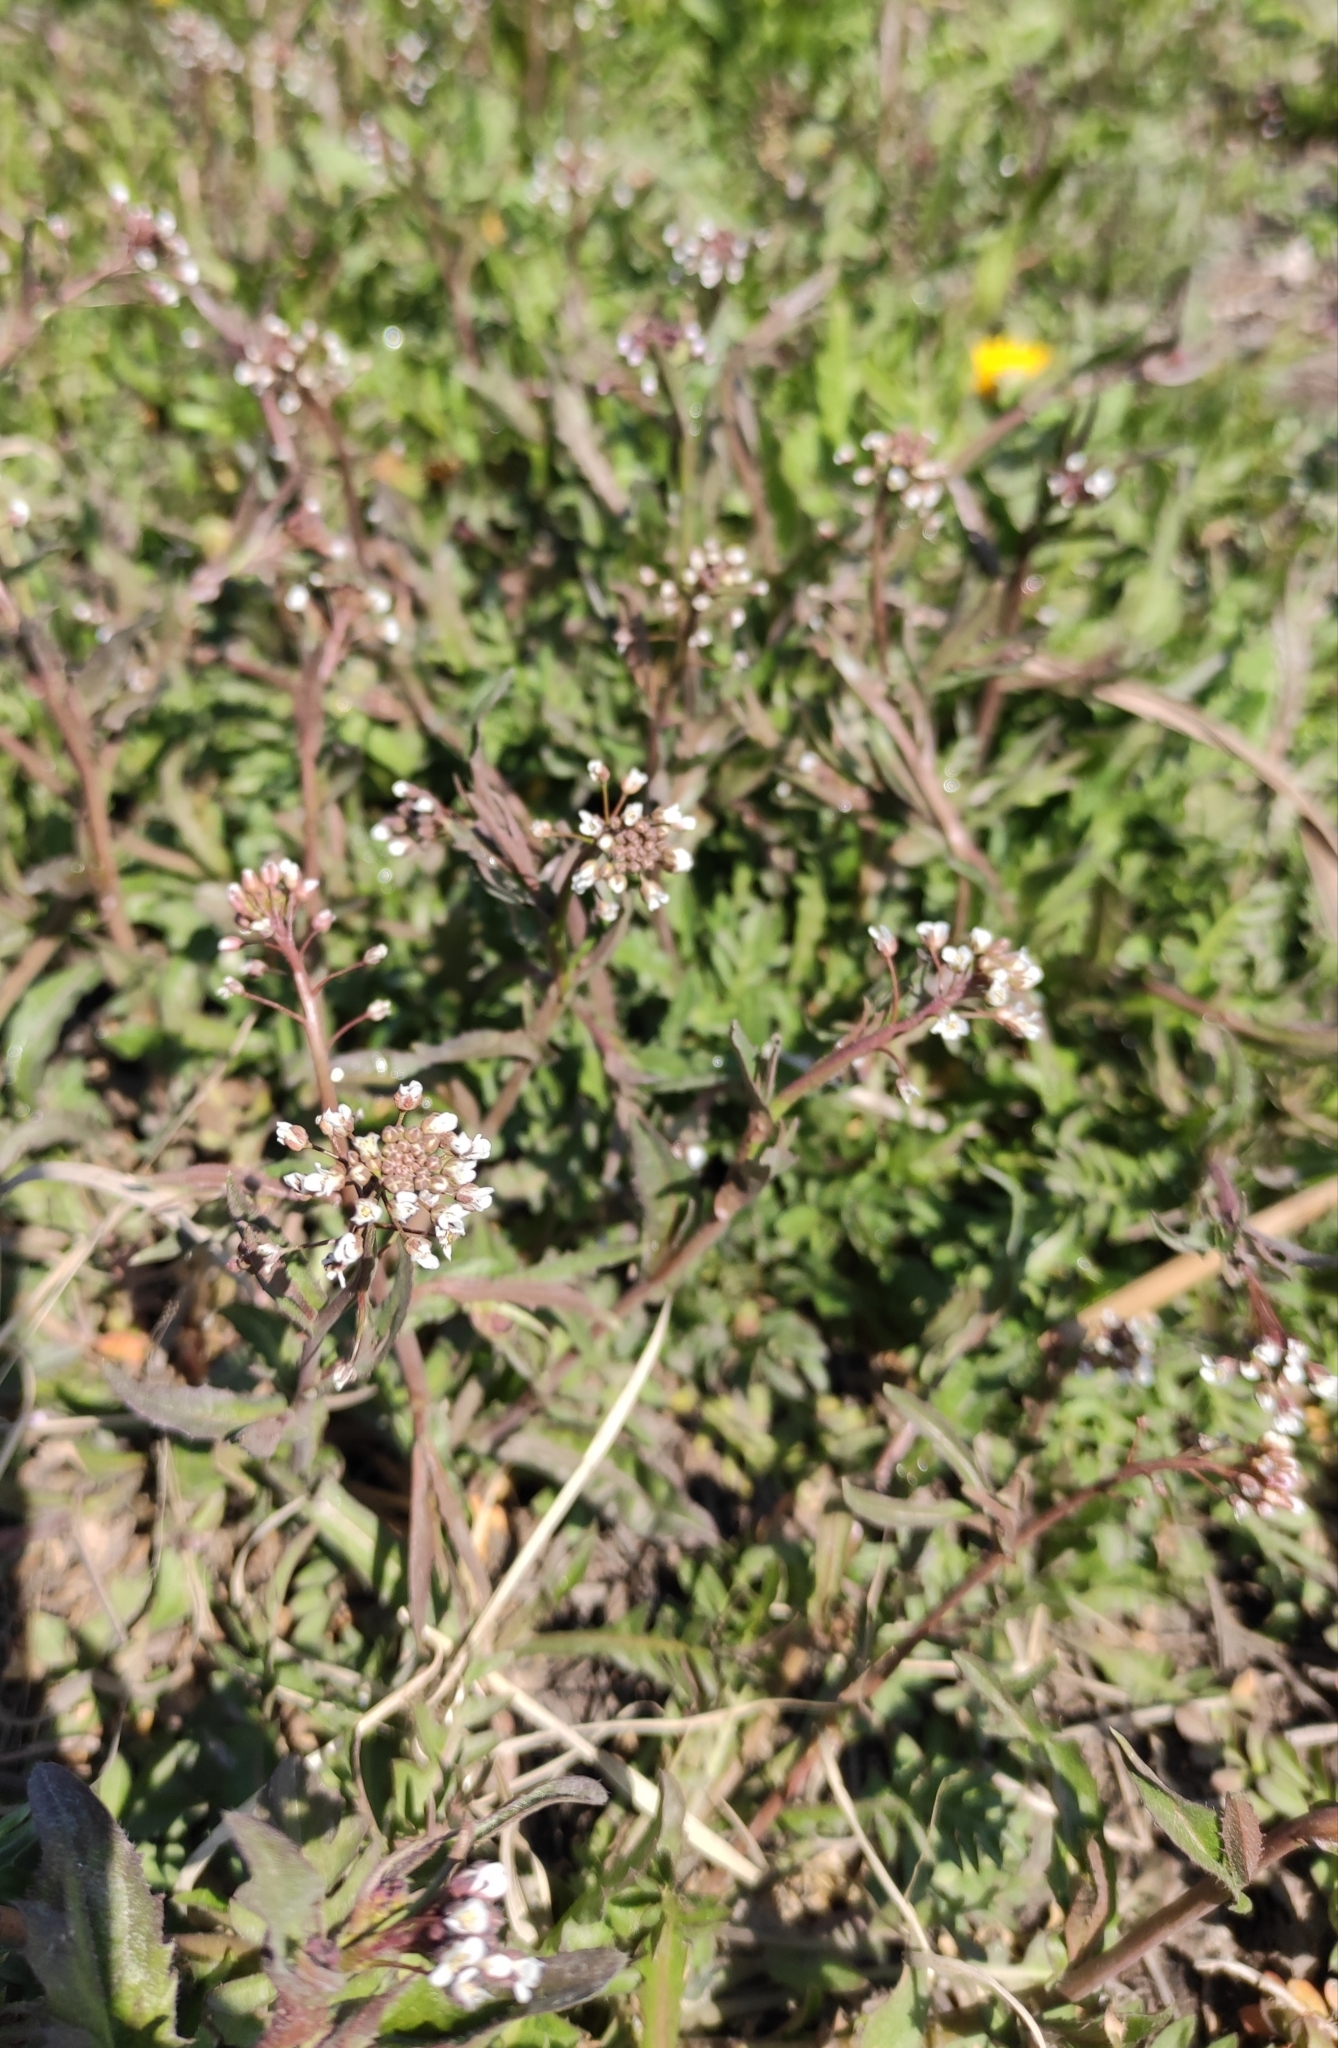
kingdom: Plantae
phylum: Tracheophyta
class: Magnoliopsida
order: Brassicales
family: Brassicaceae
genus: Capsella
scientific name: Capsella bursa-pastoris
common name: Shepherd's purse
